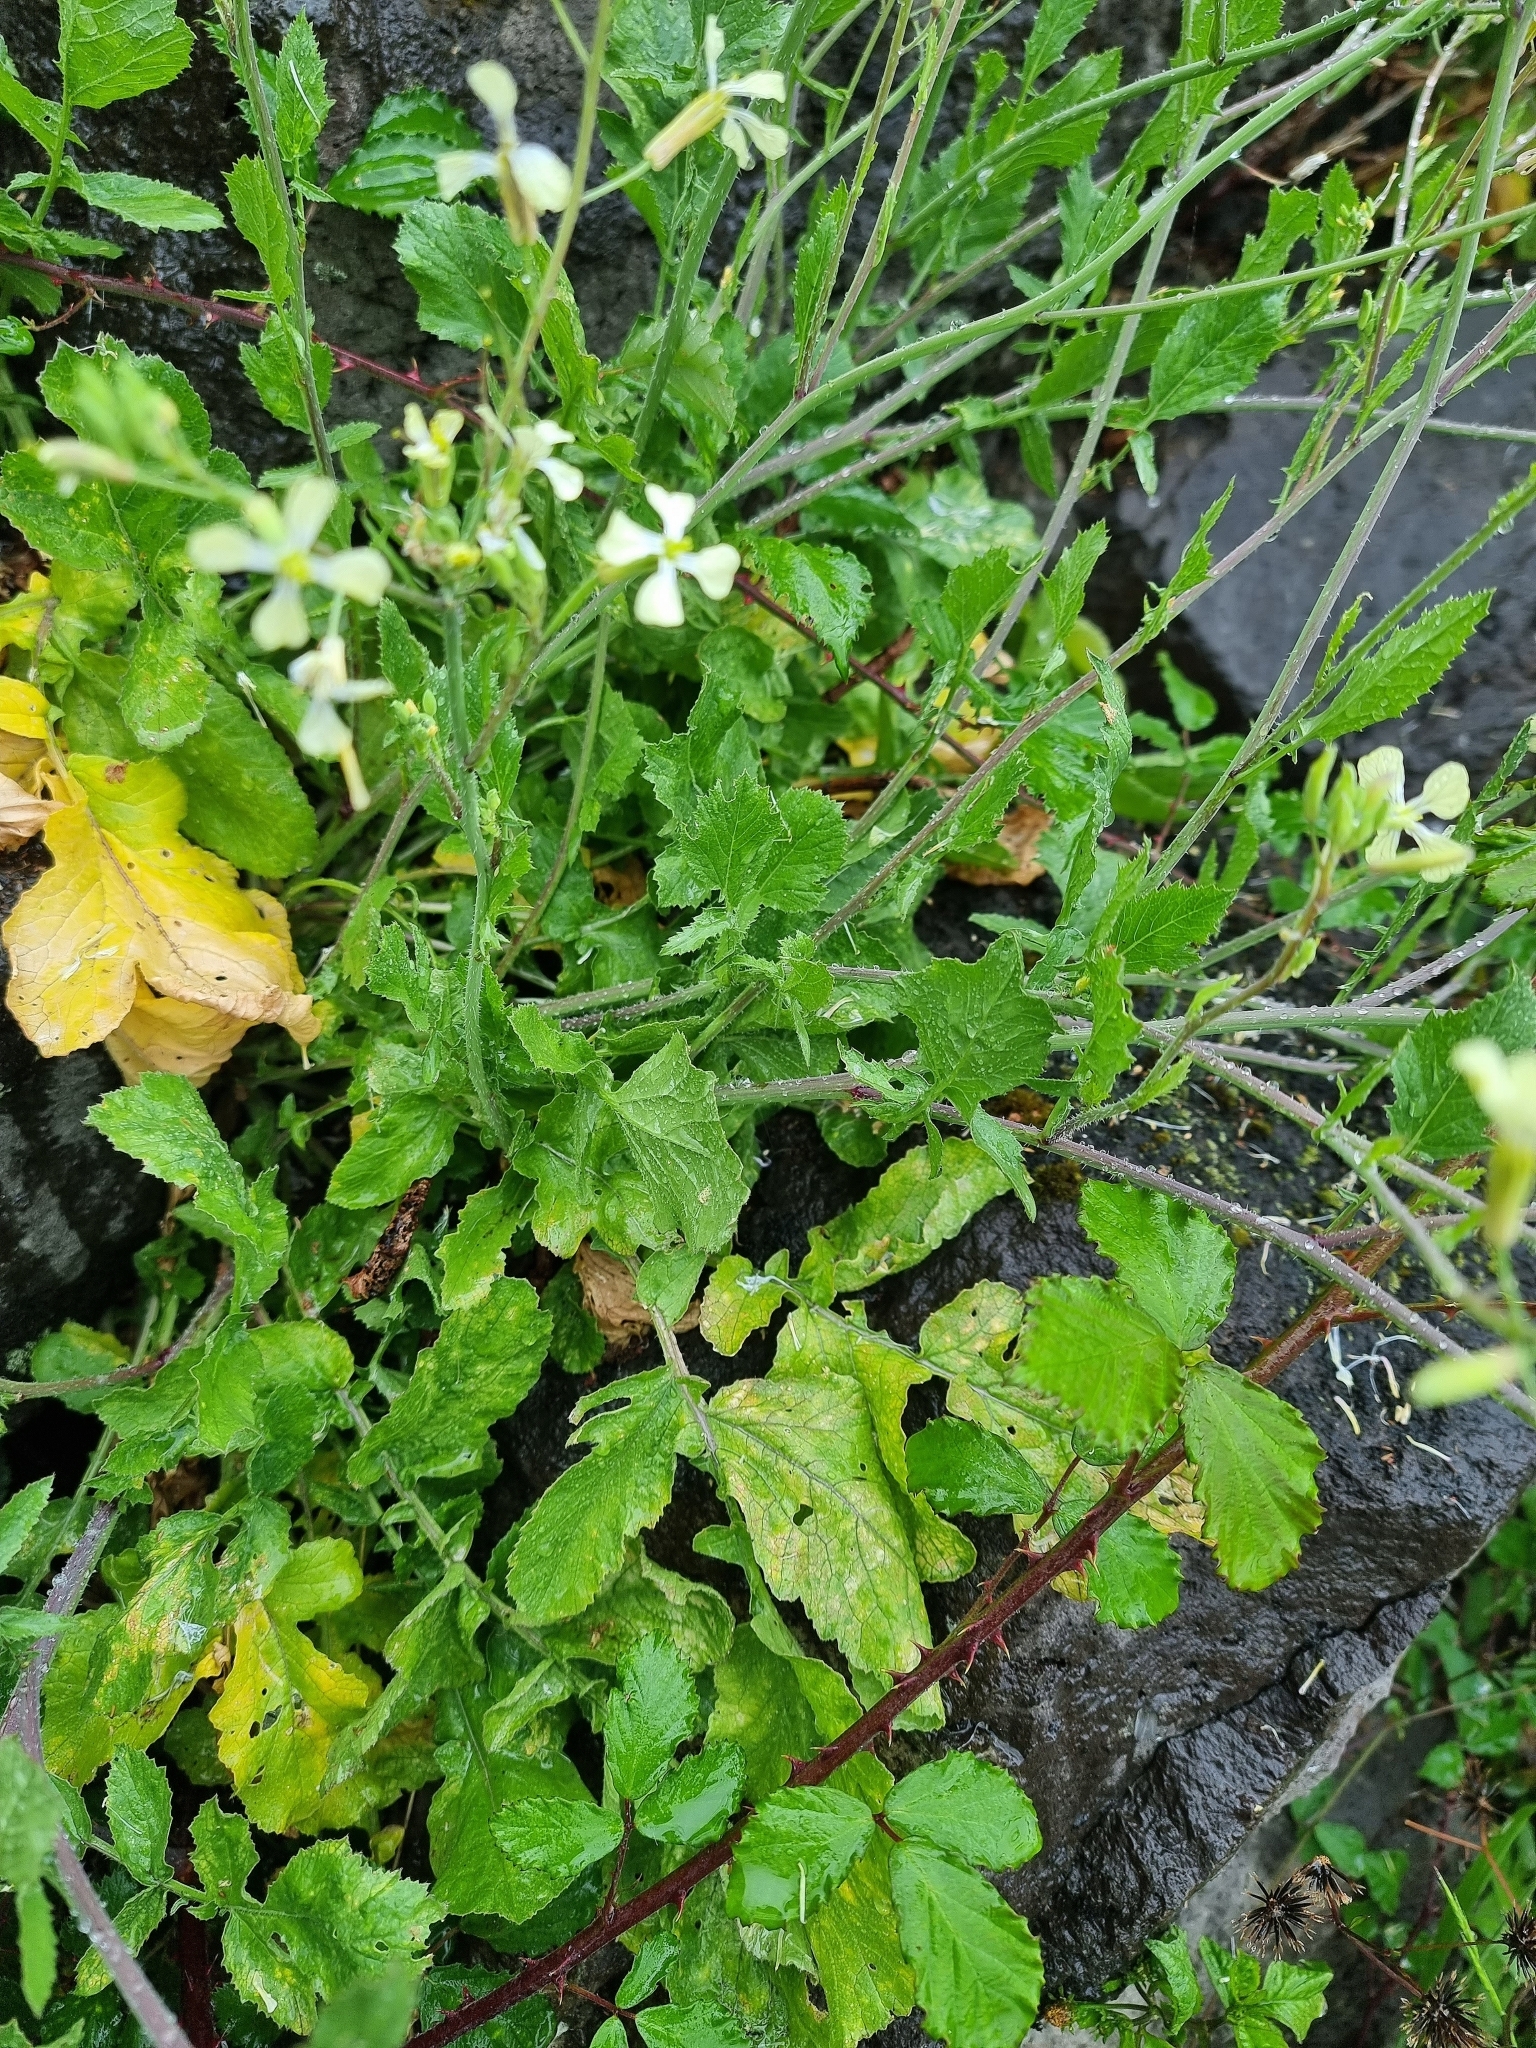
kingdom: Plantae
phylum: Tracheophyta
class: Magnoliopsida
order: Brassicales
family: Brassicaceae
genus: Raphanus
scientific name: Raphanus raphanistrum
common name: Wild radish
